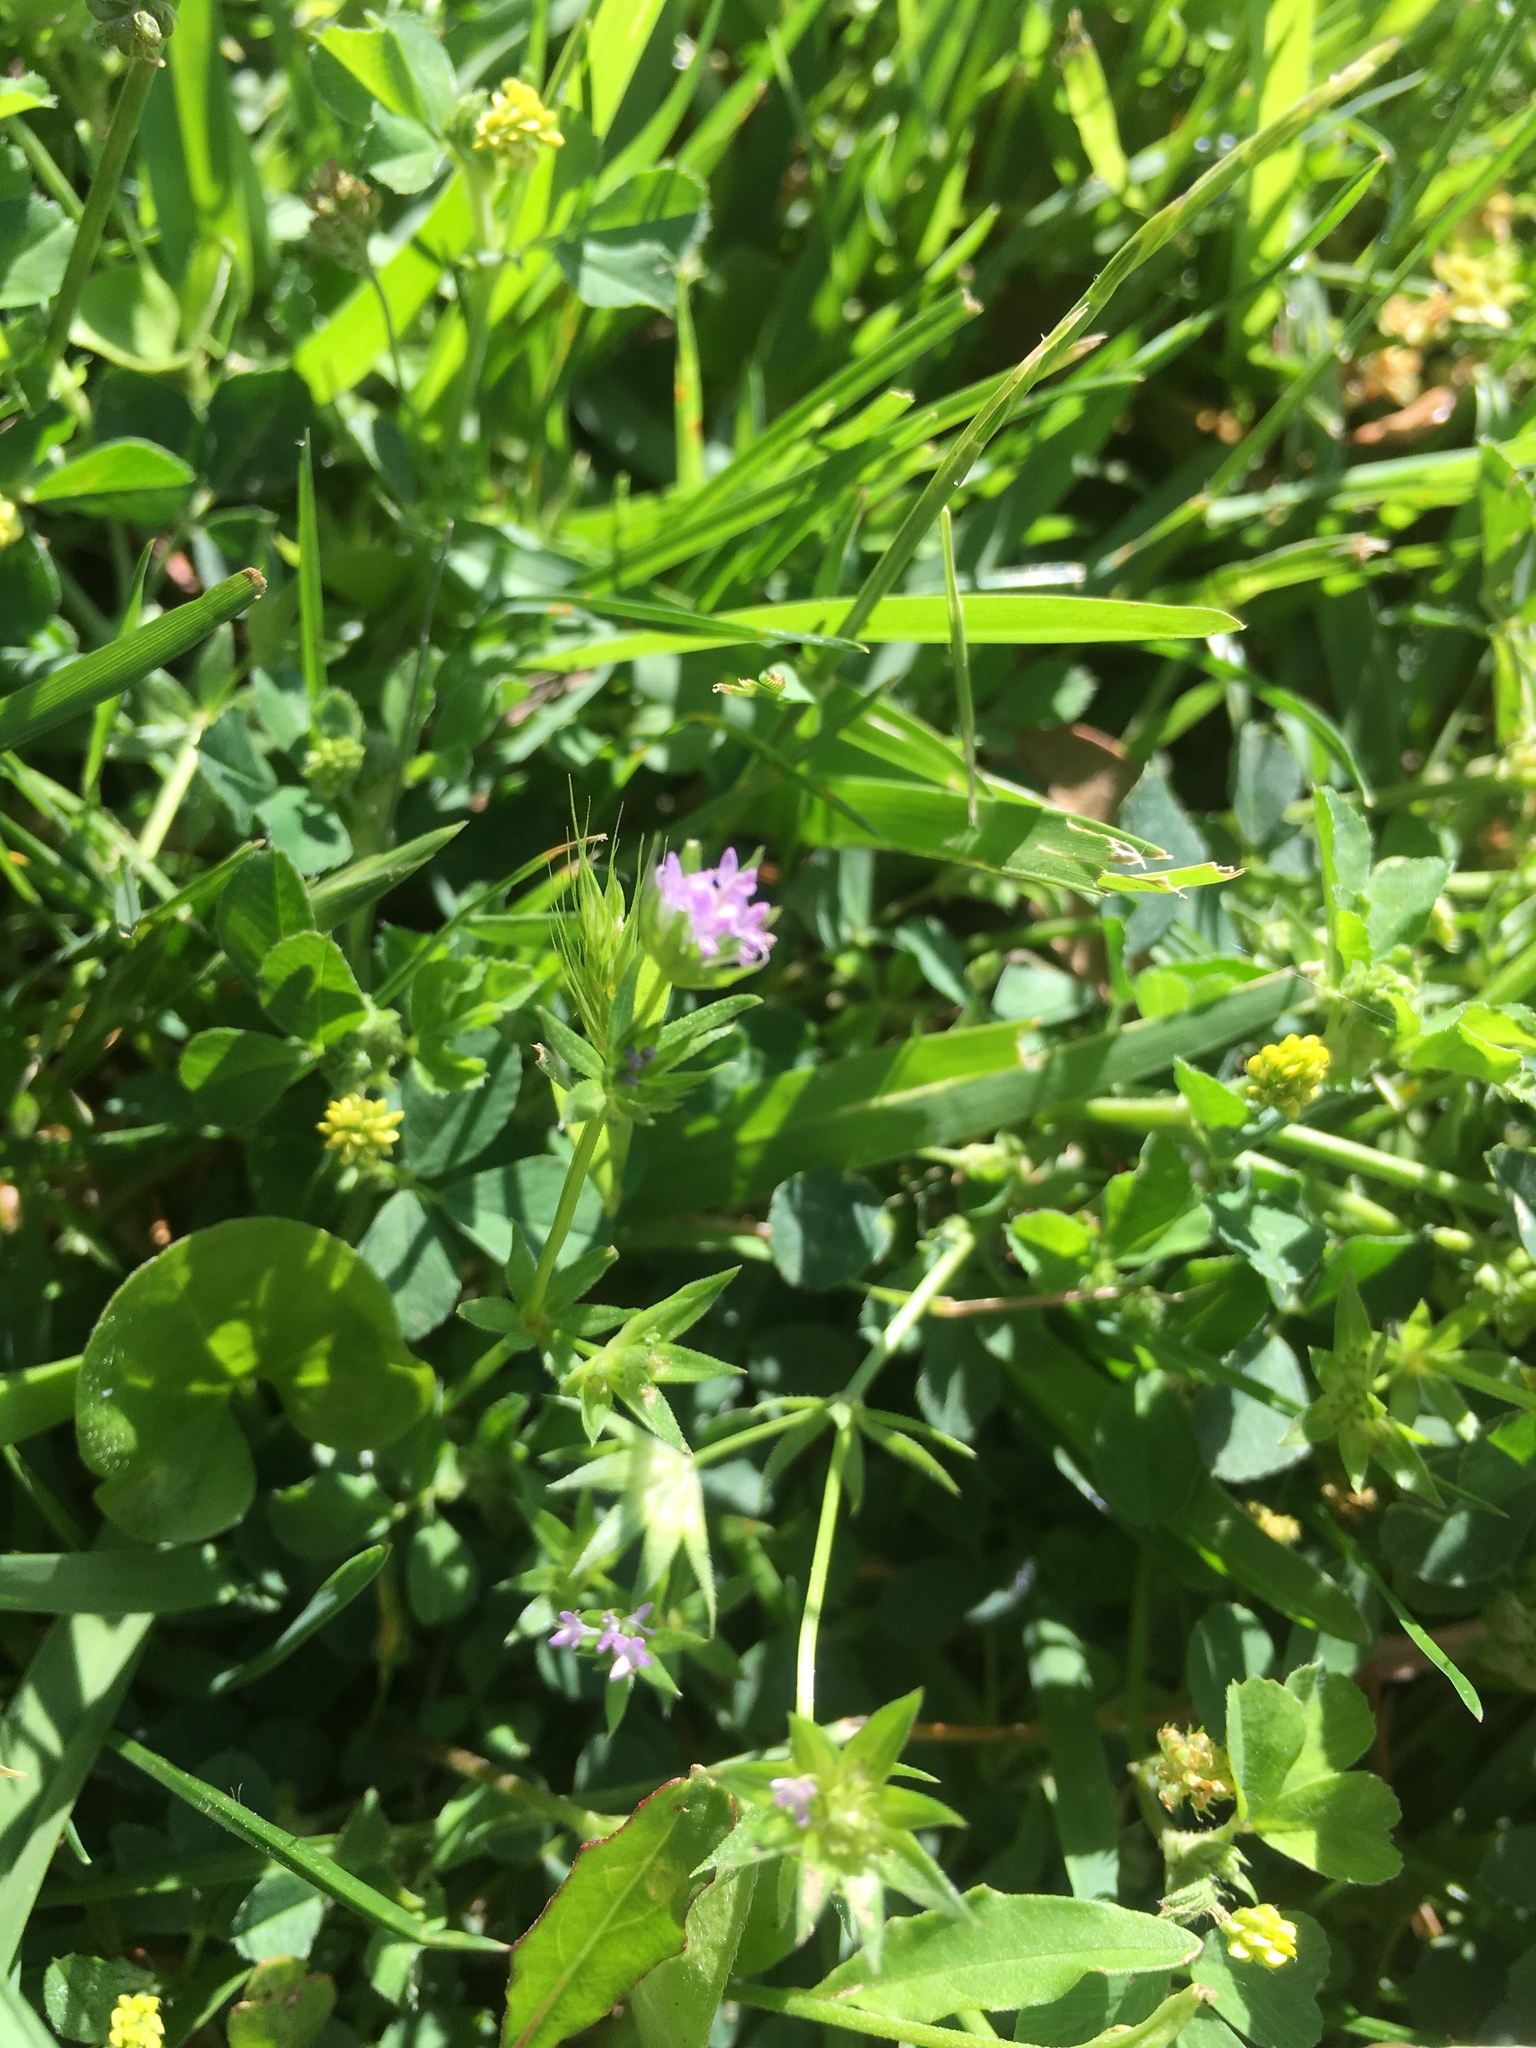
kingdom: Plantae
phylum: Tracheophyta
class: Magnoliopsida
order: Gentianales
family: Rubiaceae
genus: Sherardia
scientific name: Sherardia arvensis
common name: Field madder
